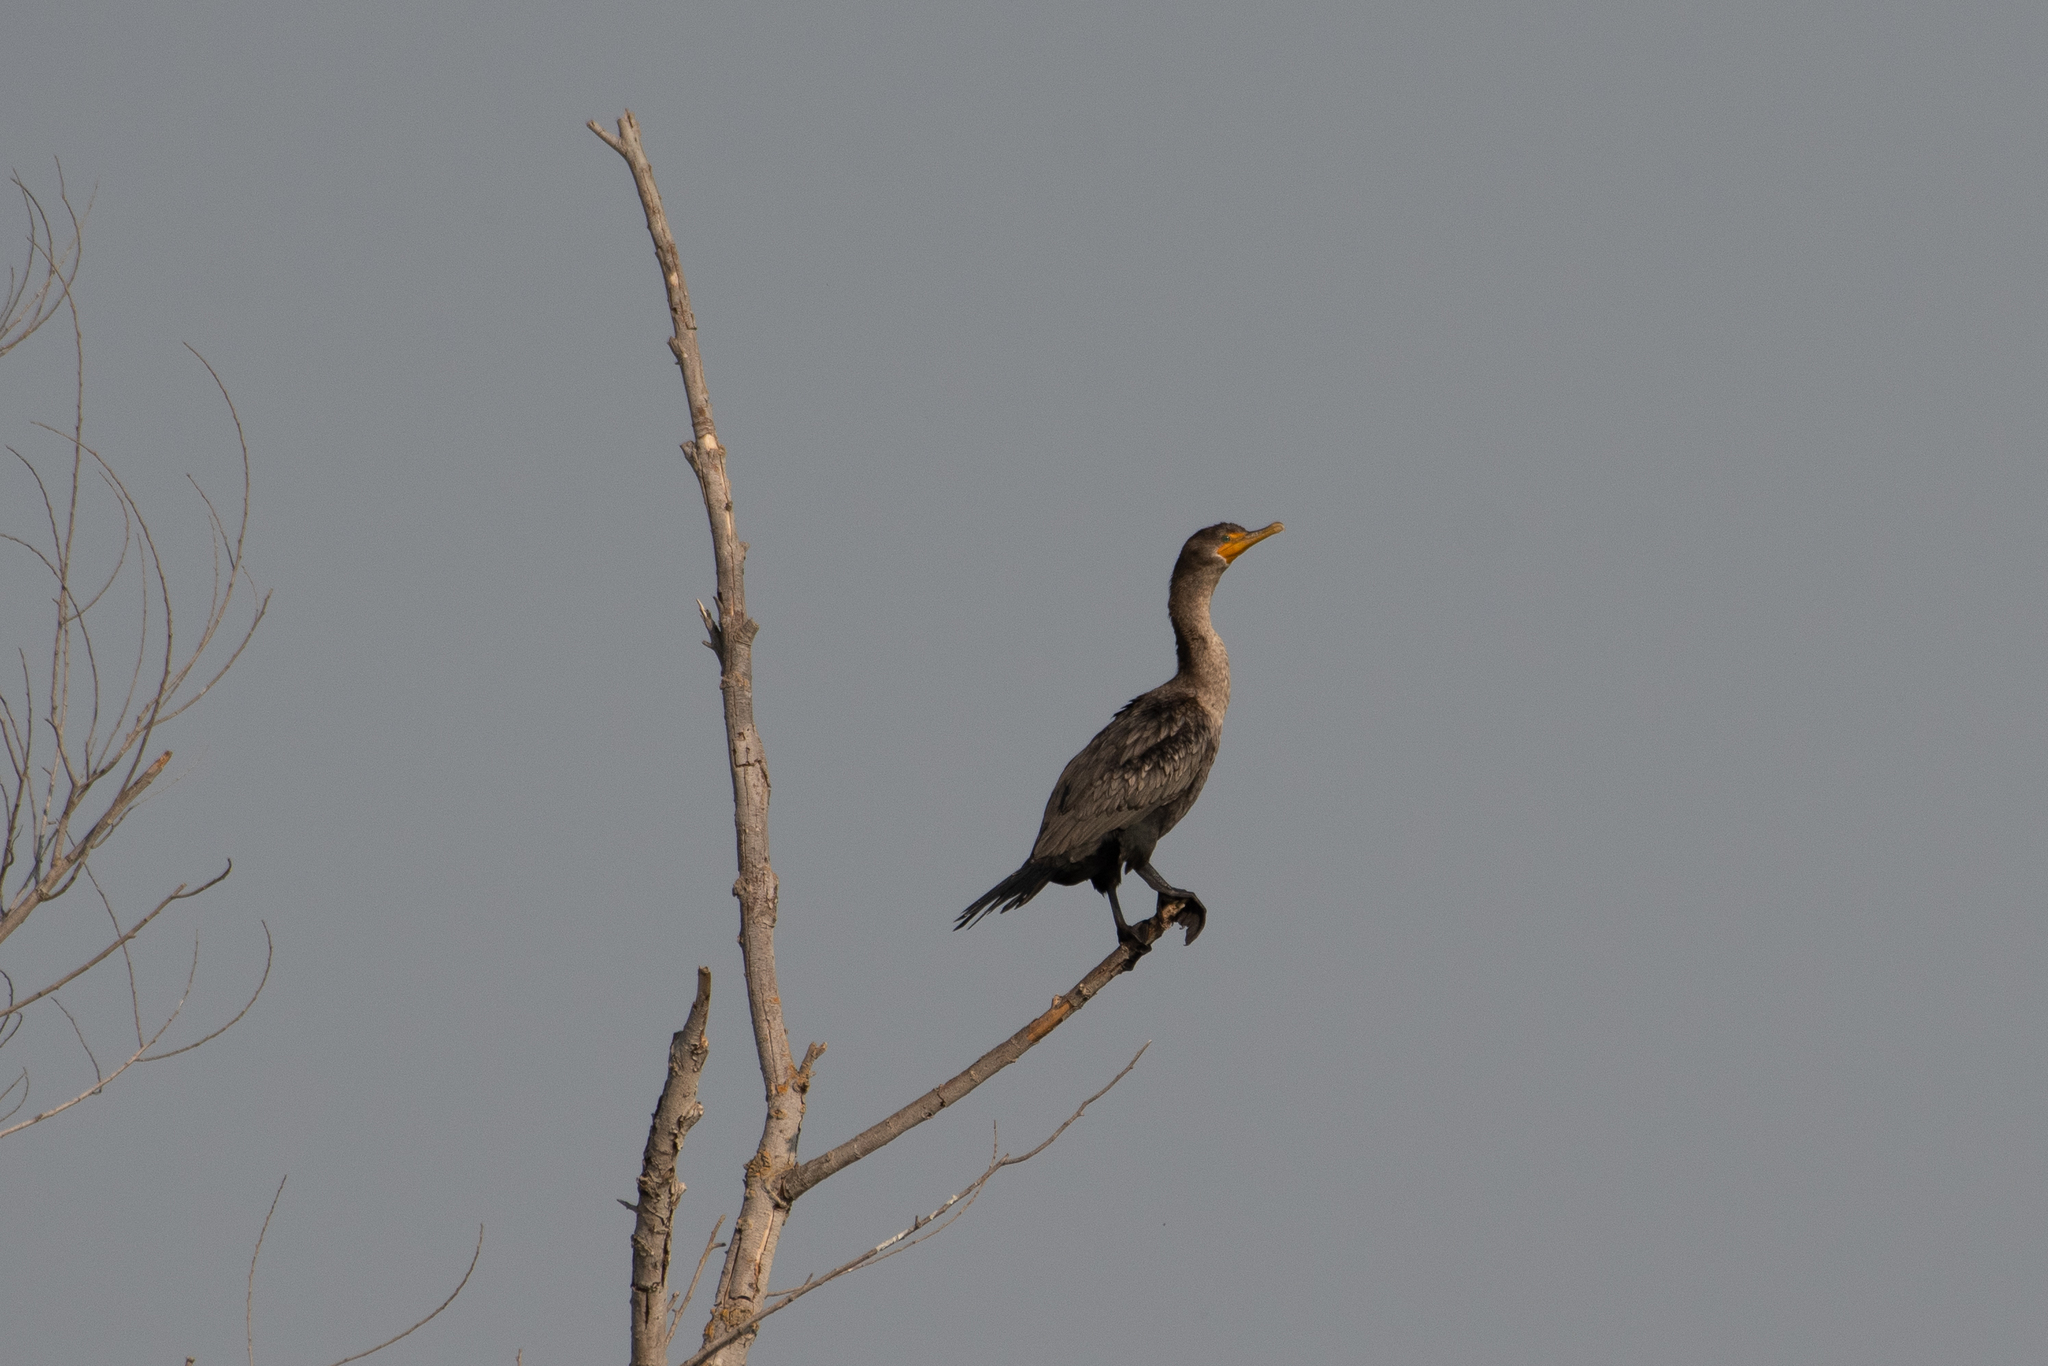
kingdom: Animalia
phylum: Chordata
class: Aves
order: Suliformes
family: Phalacrocoracidae
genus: Phalacrocorax
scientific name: Phalacrocorax auritus
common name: Double-crested cormorant
